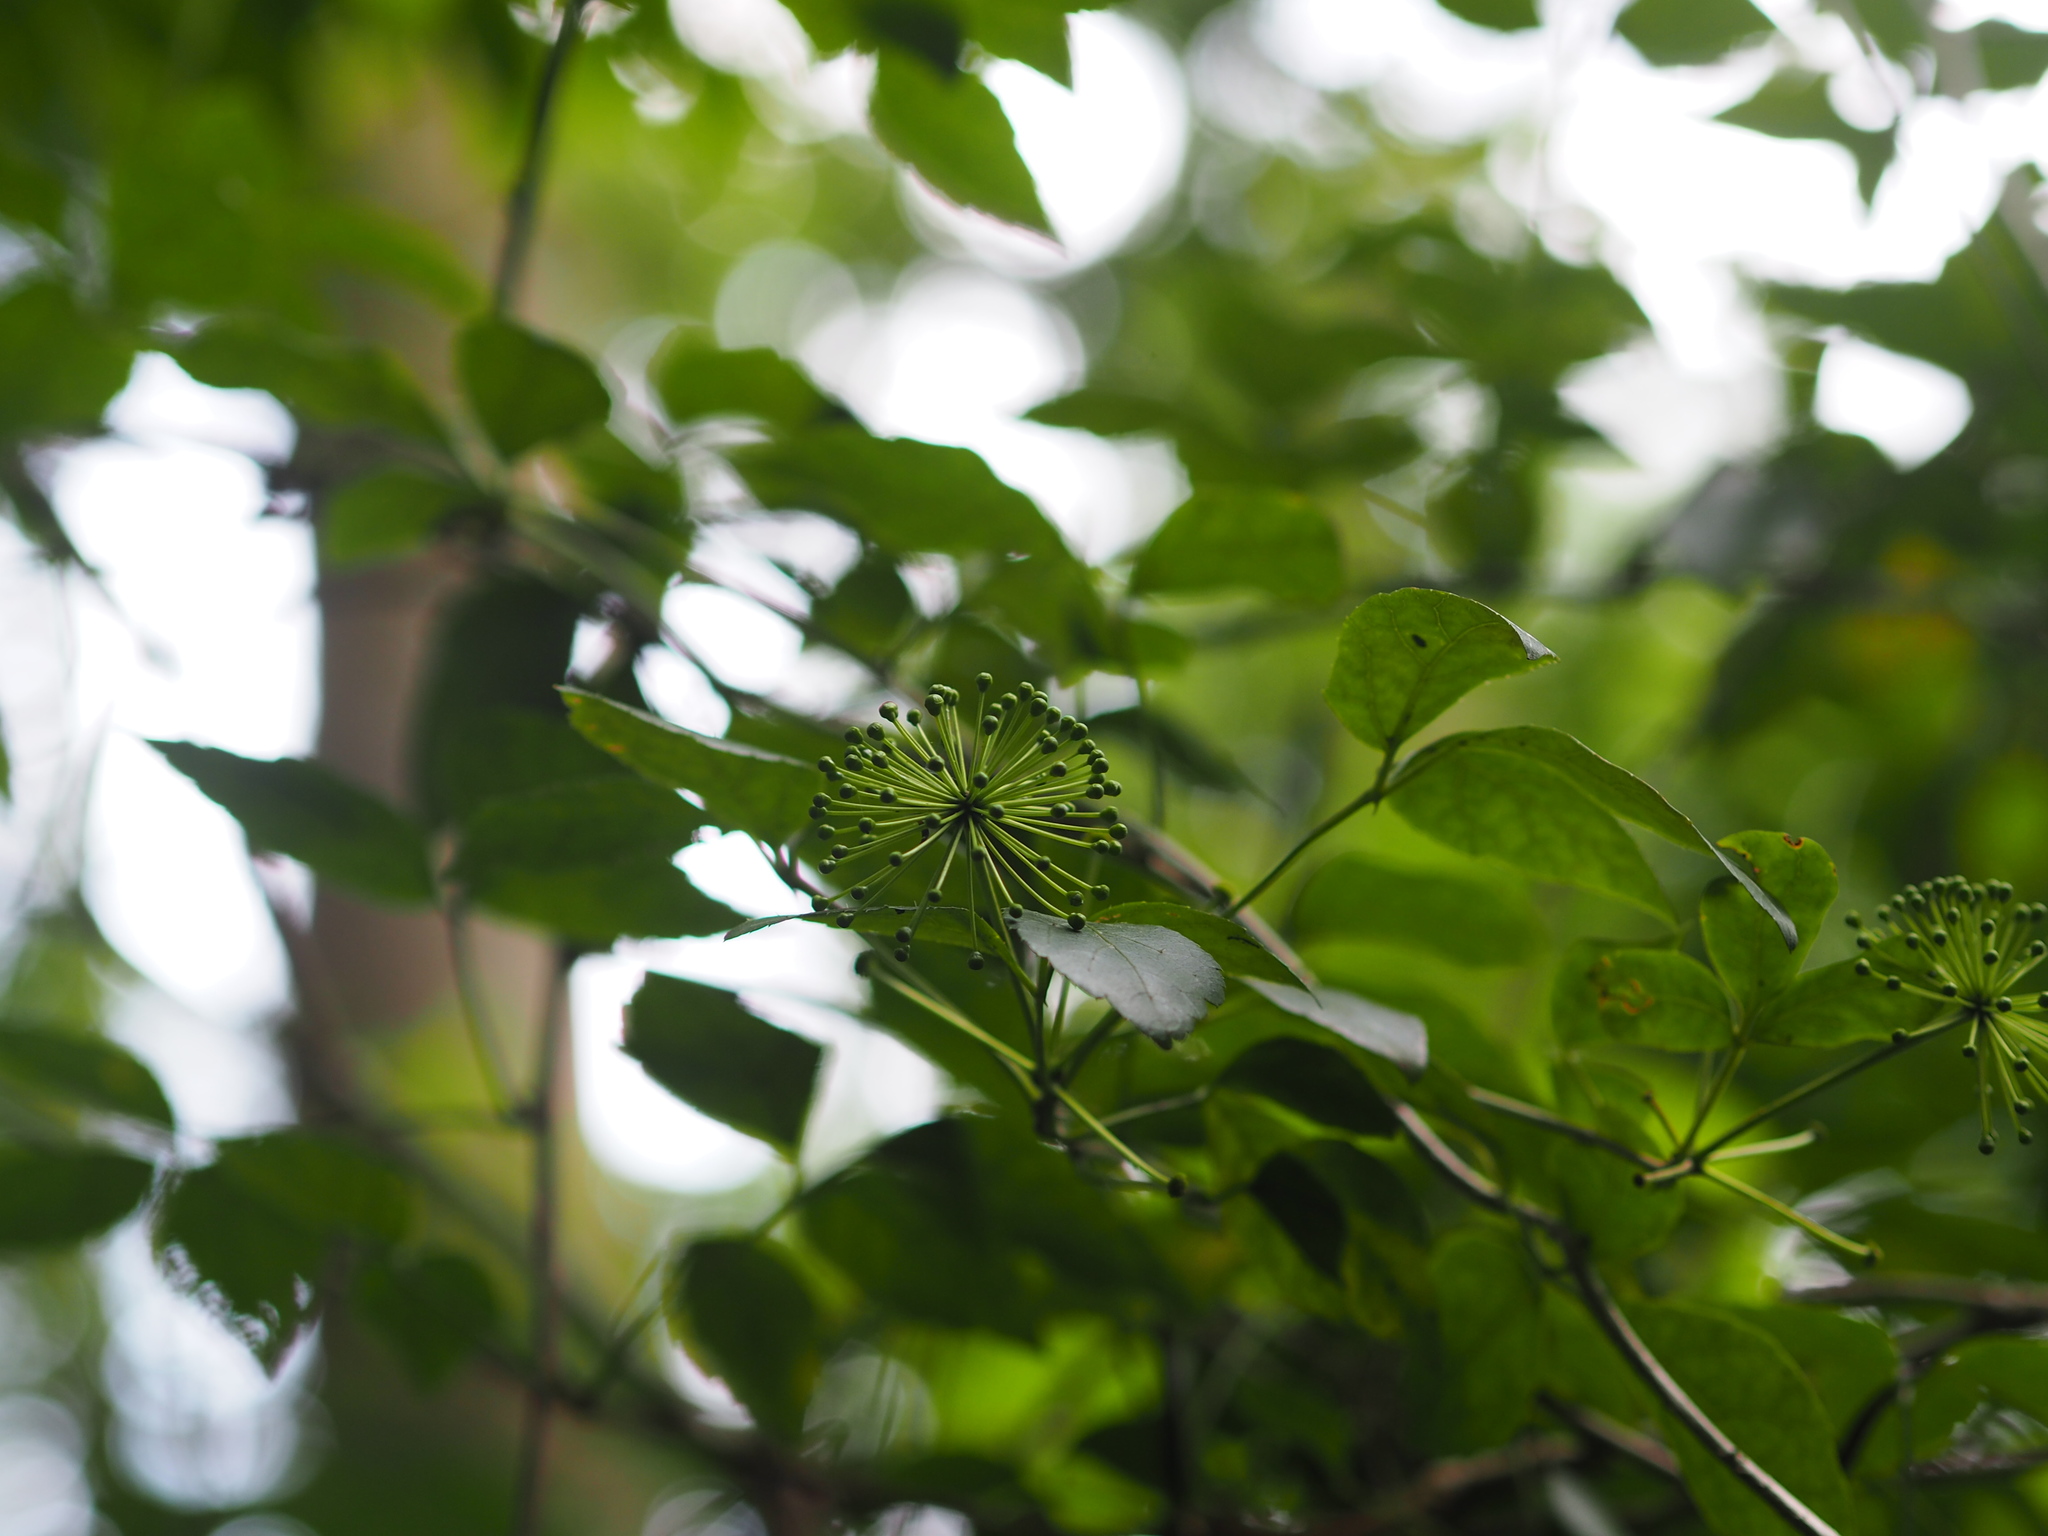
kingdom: Plantae
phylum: Tracheophyta
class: Magnoliopsida
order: Apiales
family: Araliaceae
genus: Eleutherococcus
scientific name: Eleutherococcus trifoliatus
